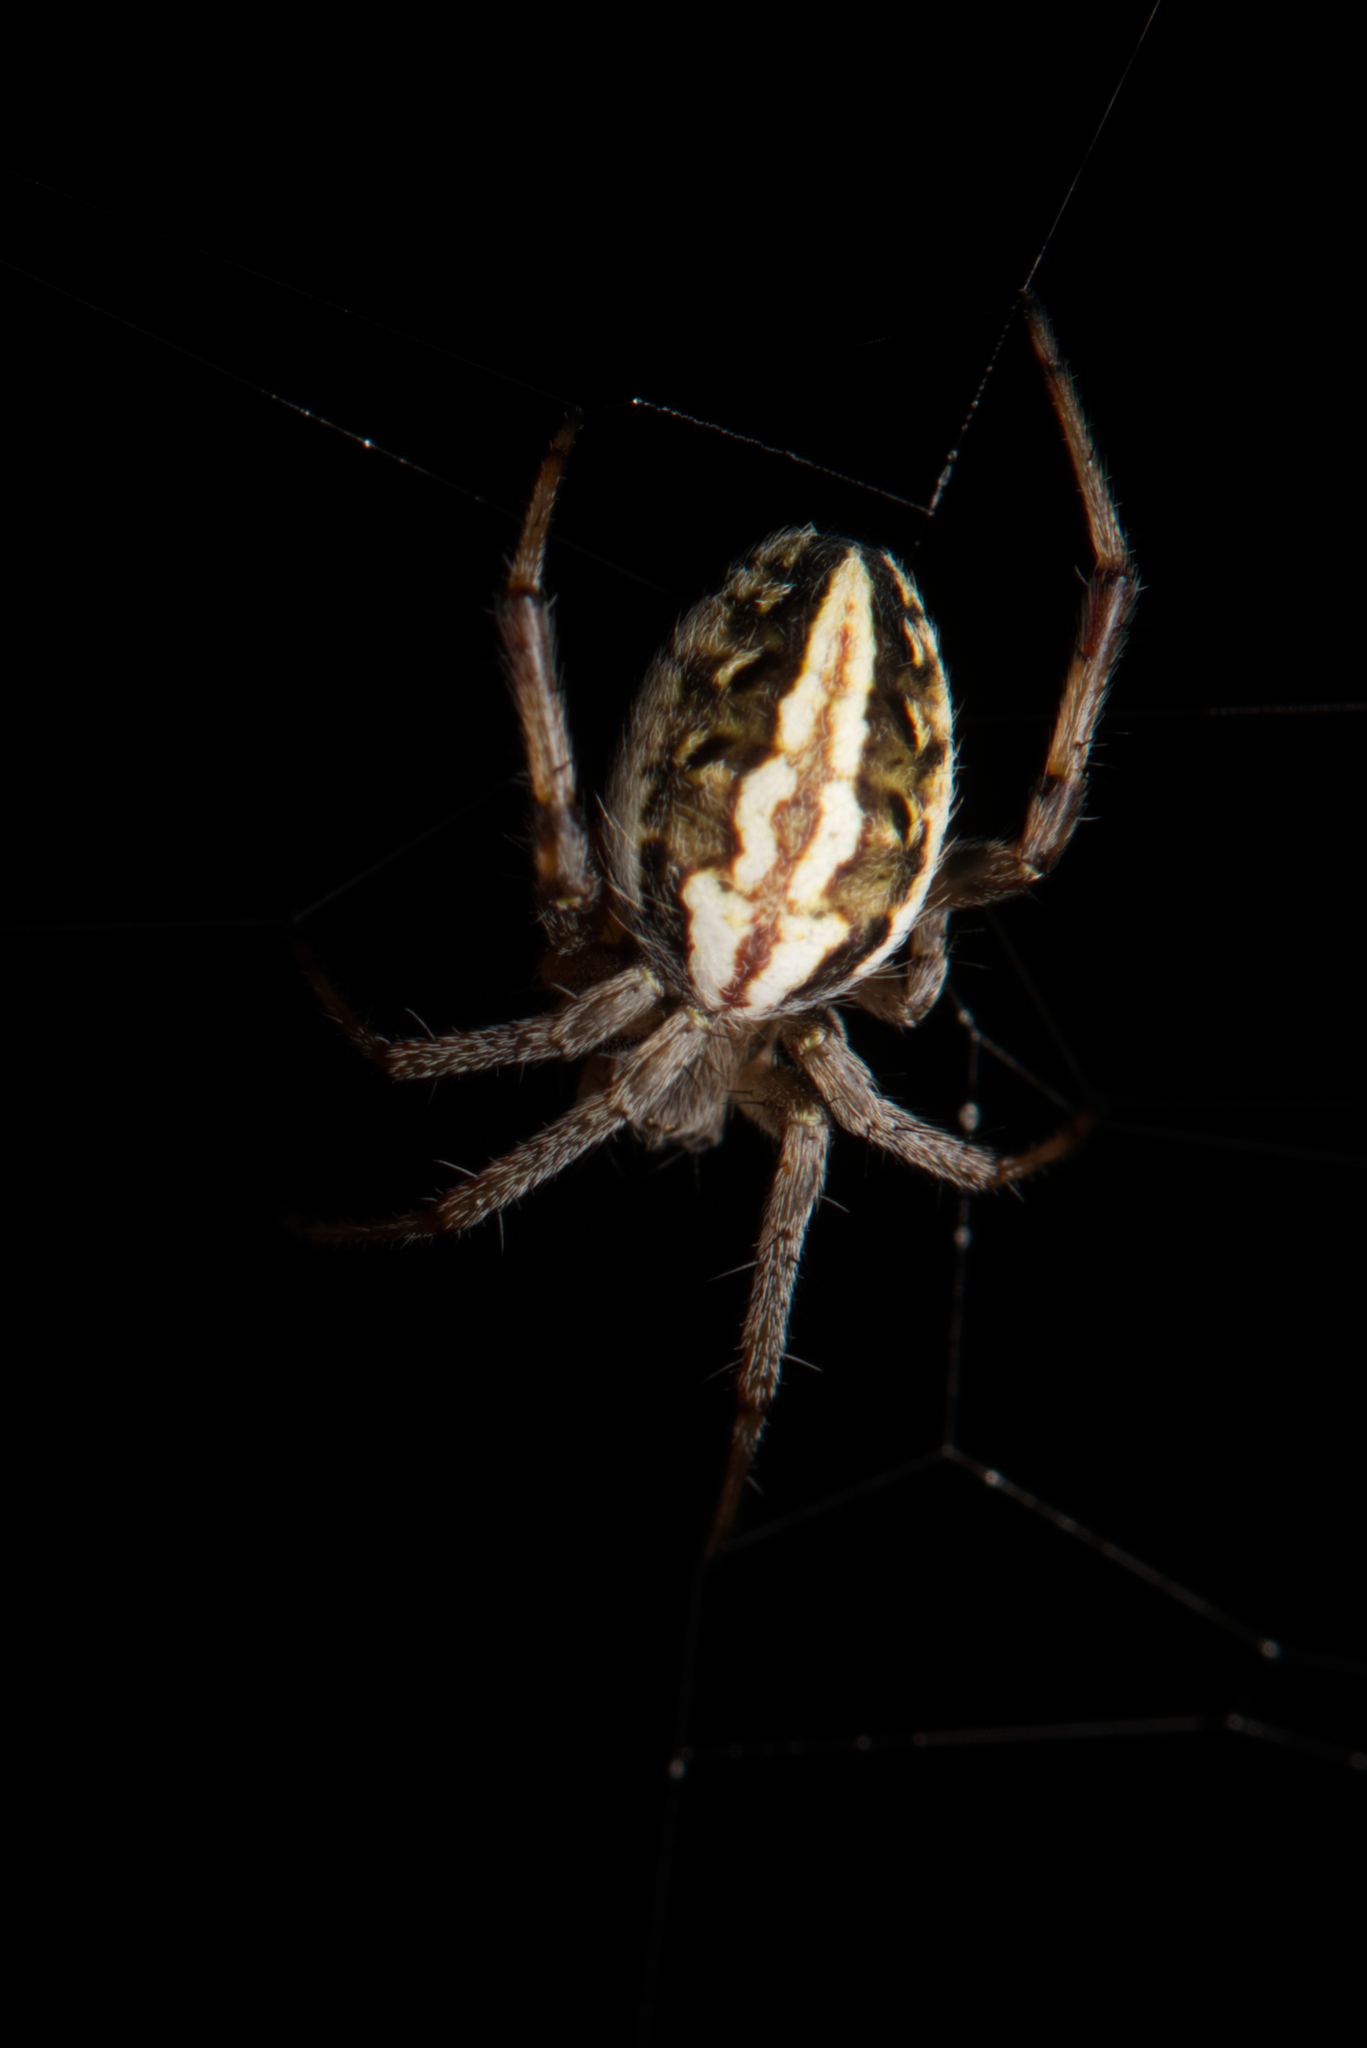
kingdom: Animalia
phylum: Arthropoda
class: Arachnida
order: Araneae
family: Araneidae
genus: Neoscona
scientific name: Neoscona theisi
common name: Spider
